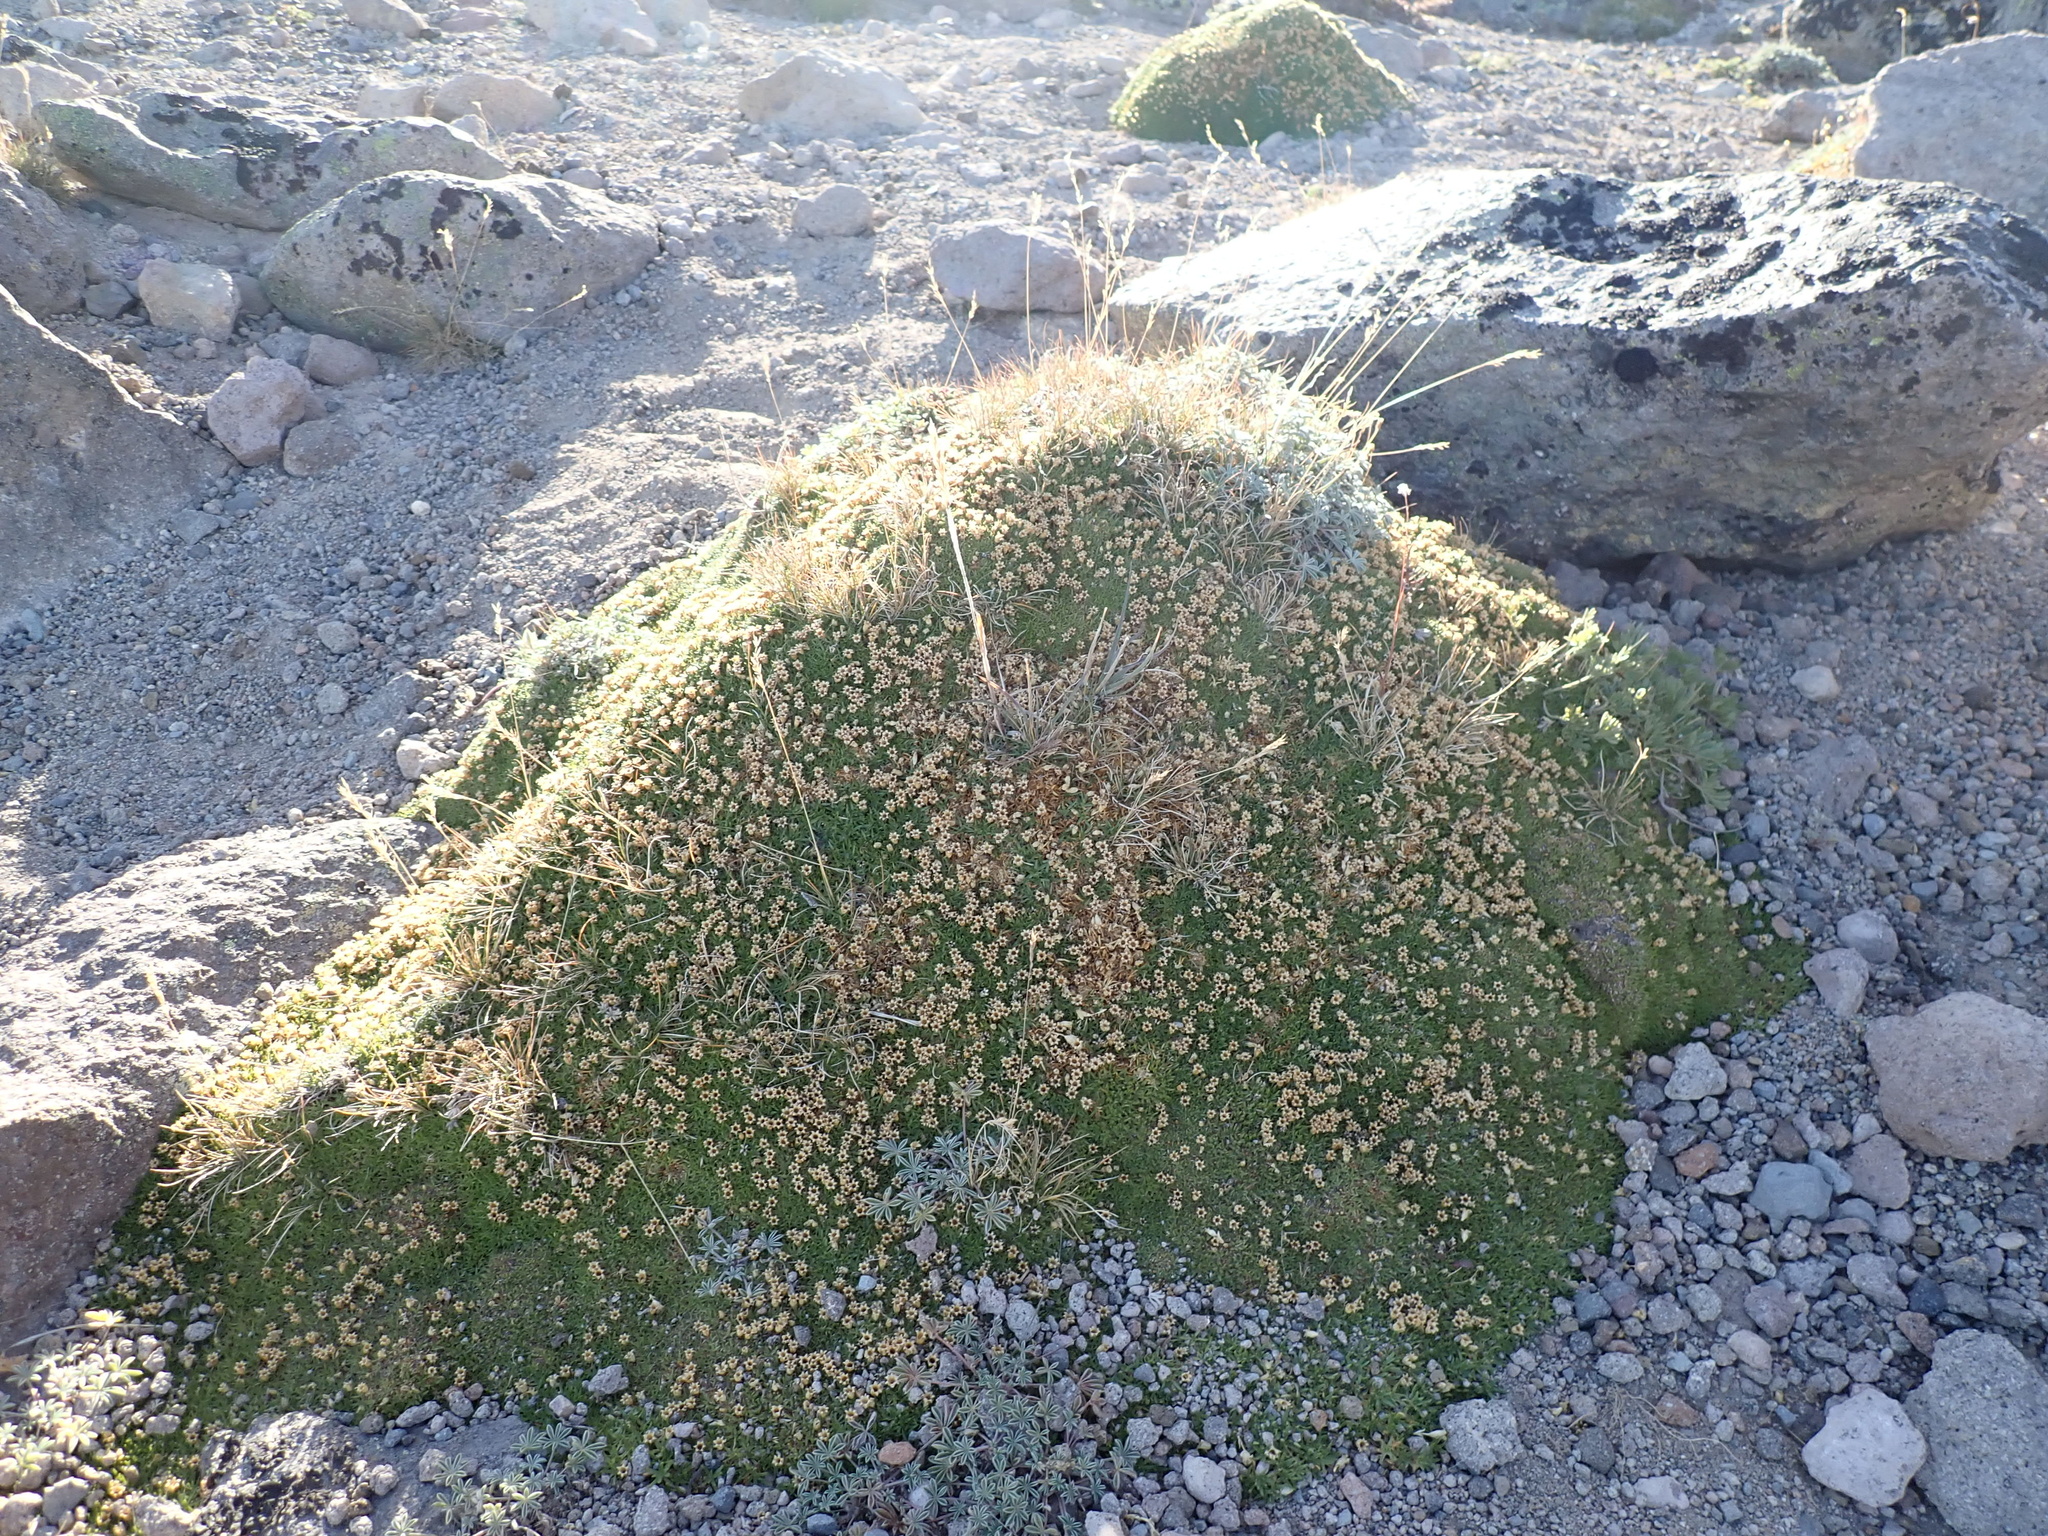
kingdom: Plantae
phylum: Tracheophyta
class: Magnoliopsida
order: Caryophyllales
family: Caryophyllaceae
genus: Silene
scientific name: Silene acaulis
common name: Moss campion
